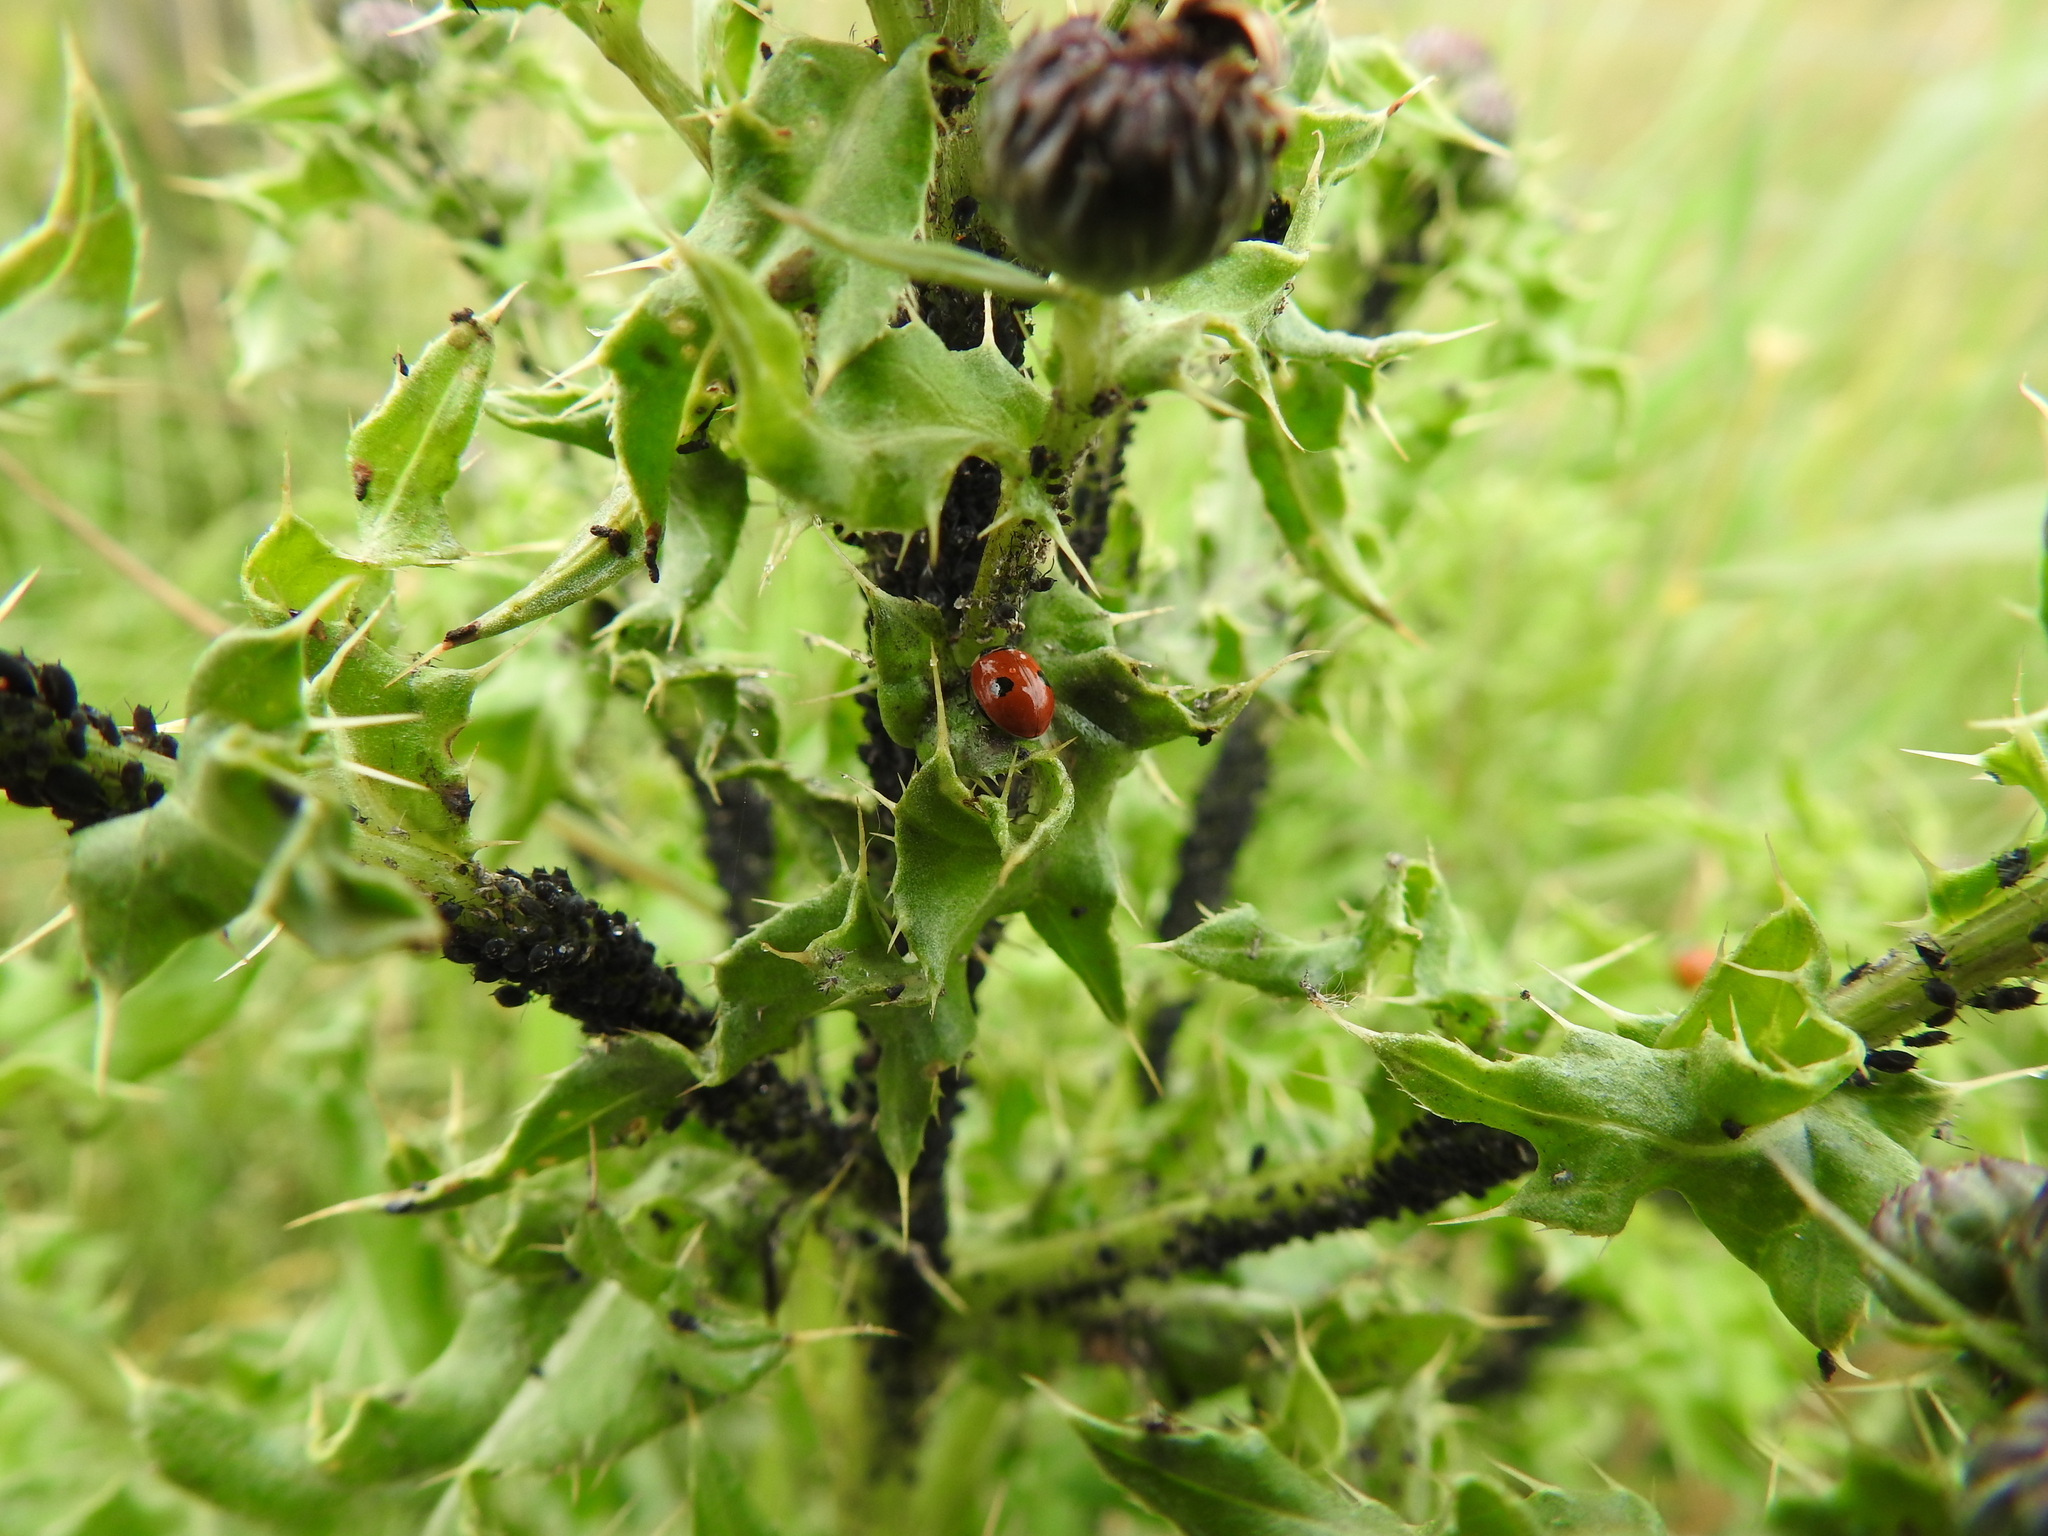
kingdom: Animalia
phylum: Arthropoda
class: Insecta
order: Coleoptera
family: Coccinellidae
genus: Adalia
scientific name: Adalia bipunctata
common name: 2-spot ladybird
